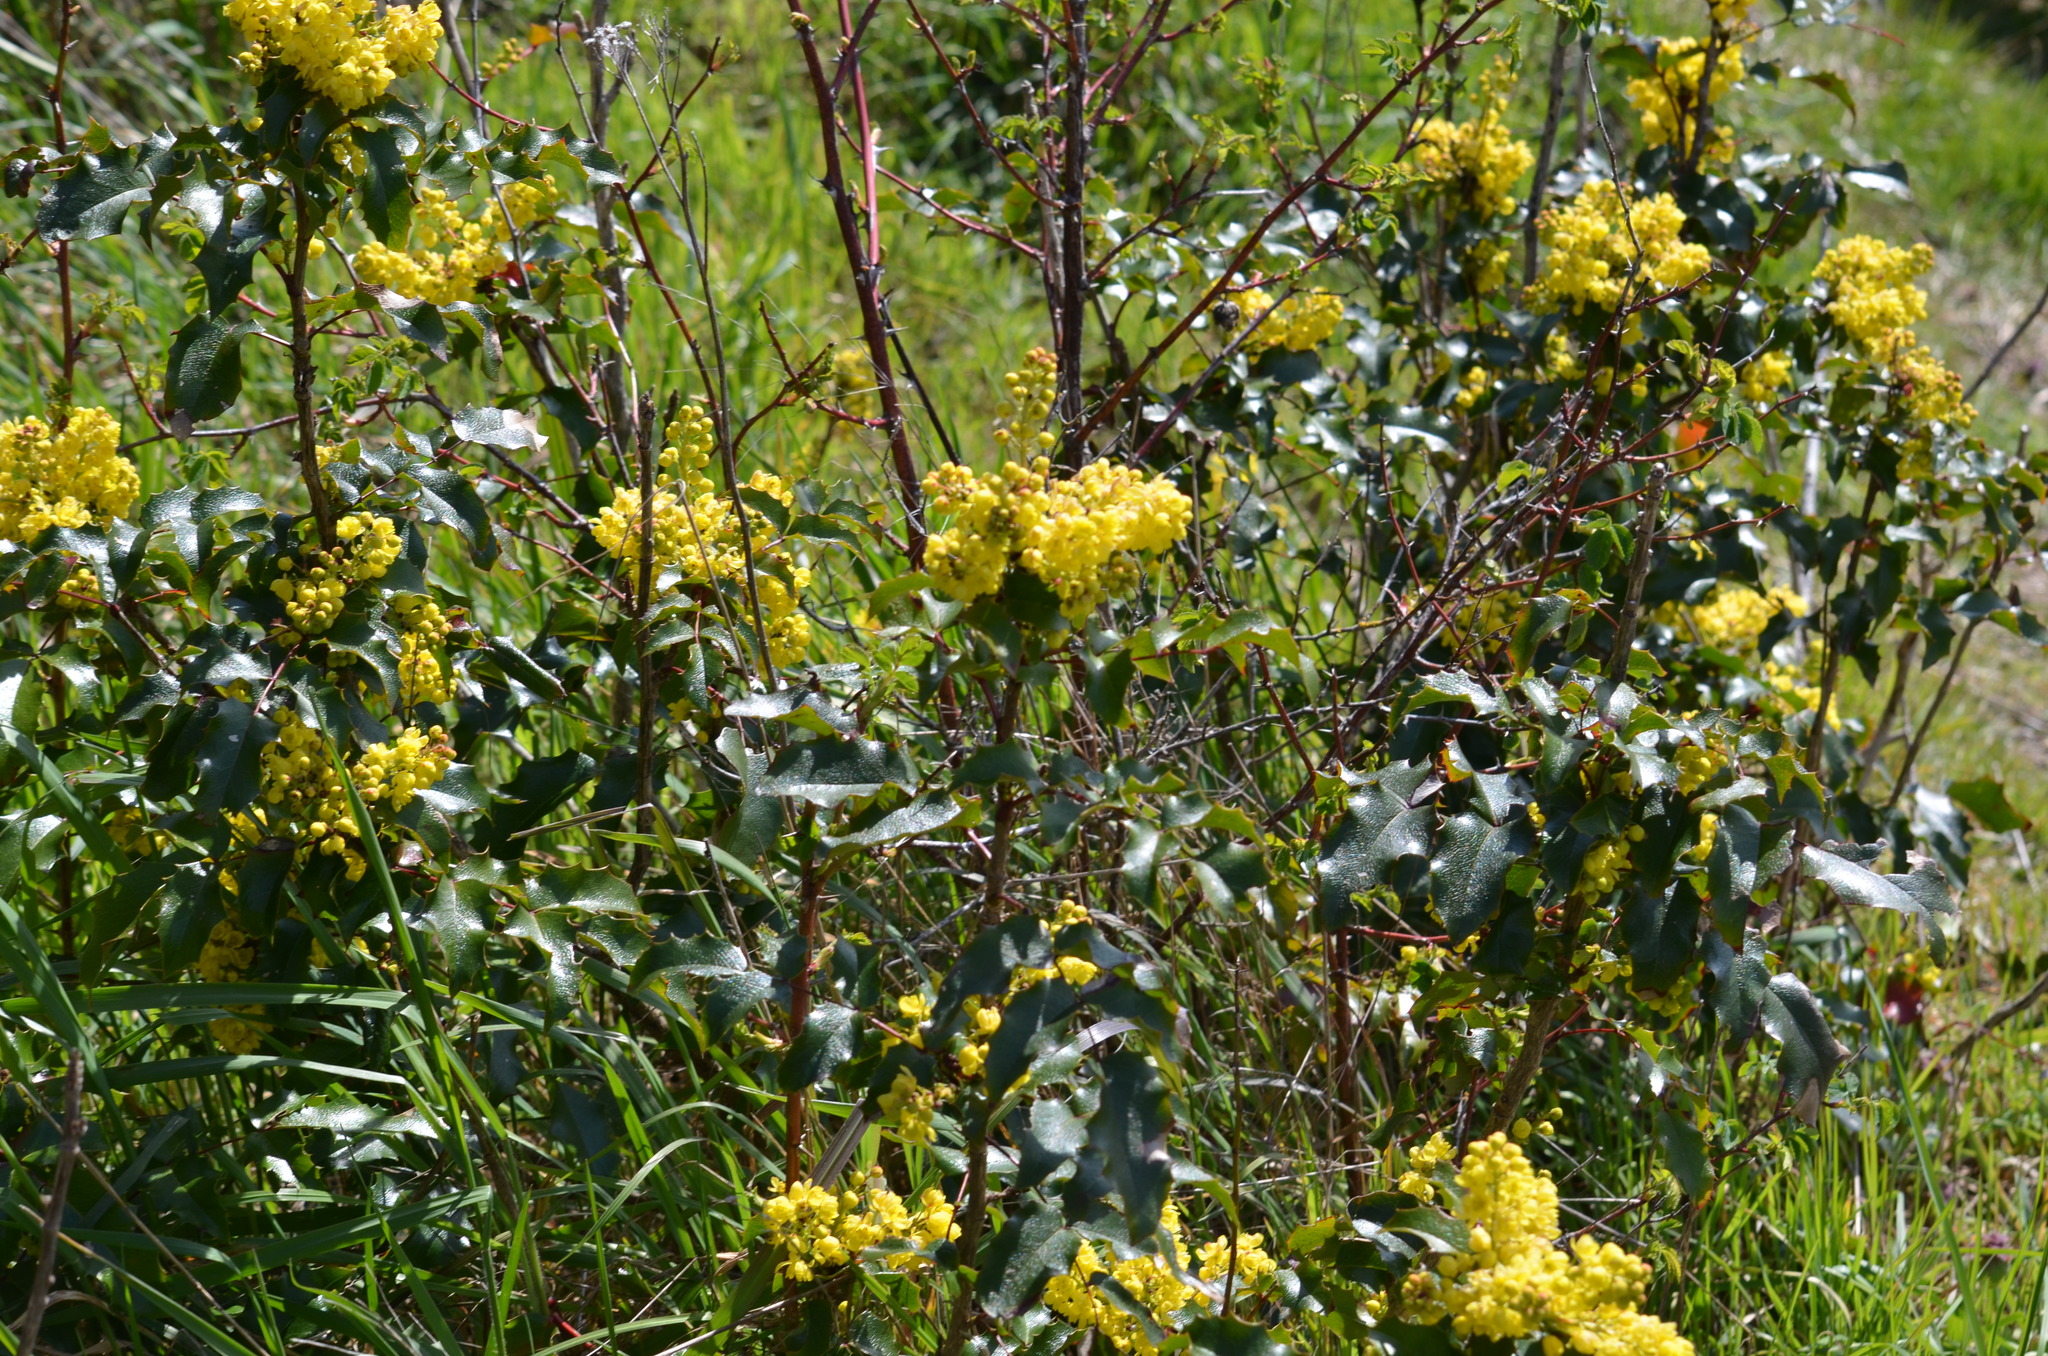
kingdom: Plantae
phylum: Tracheophyta
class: Magnoliopsida
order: Ranunculales
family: Berberidaceae
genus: Mahonia
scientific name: Mahonia aquifolium
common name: Oregon-grape
